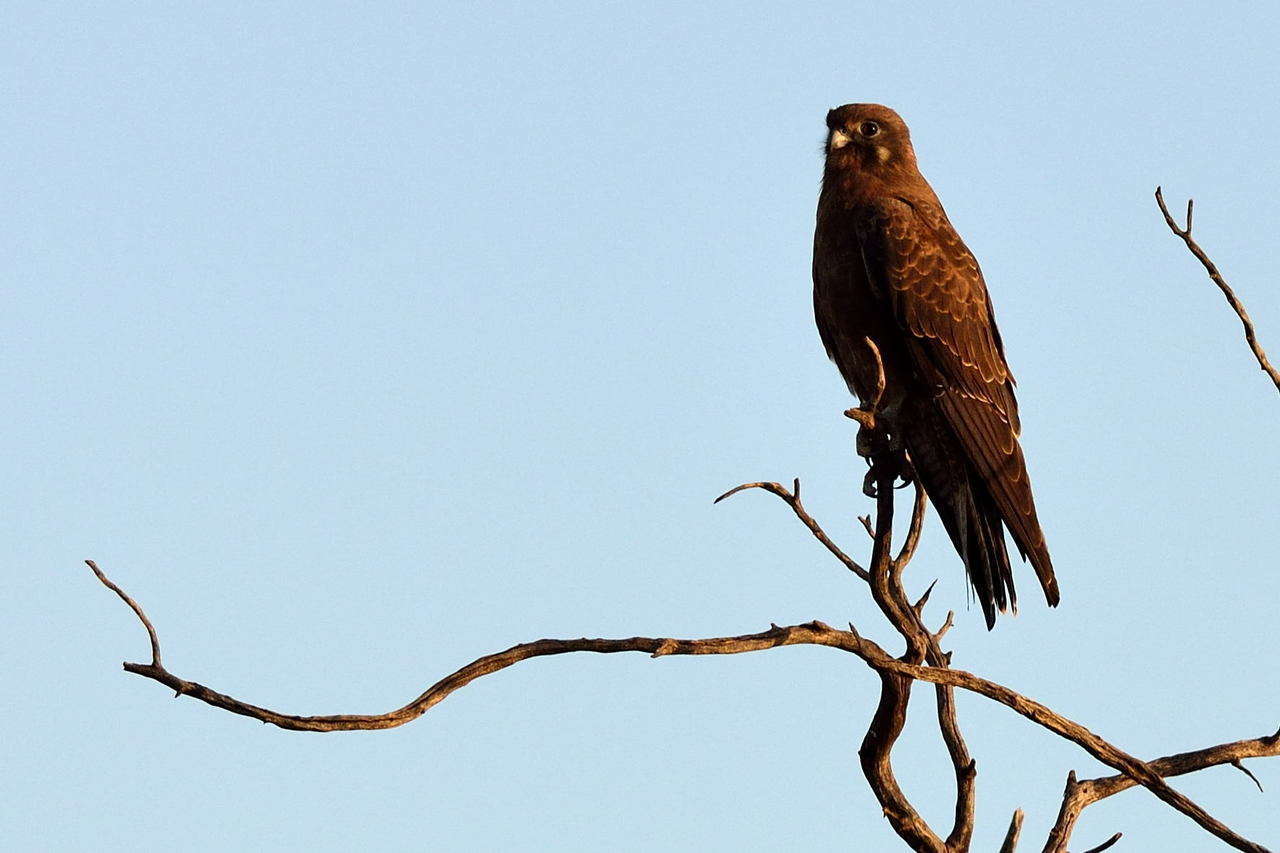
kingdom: Animalia
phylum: Chordata
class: Aves
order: Falconiformes
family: Falconidae
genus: Falco
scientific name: Falco berigora
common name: Brown falcon
